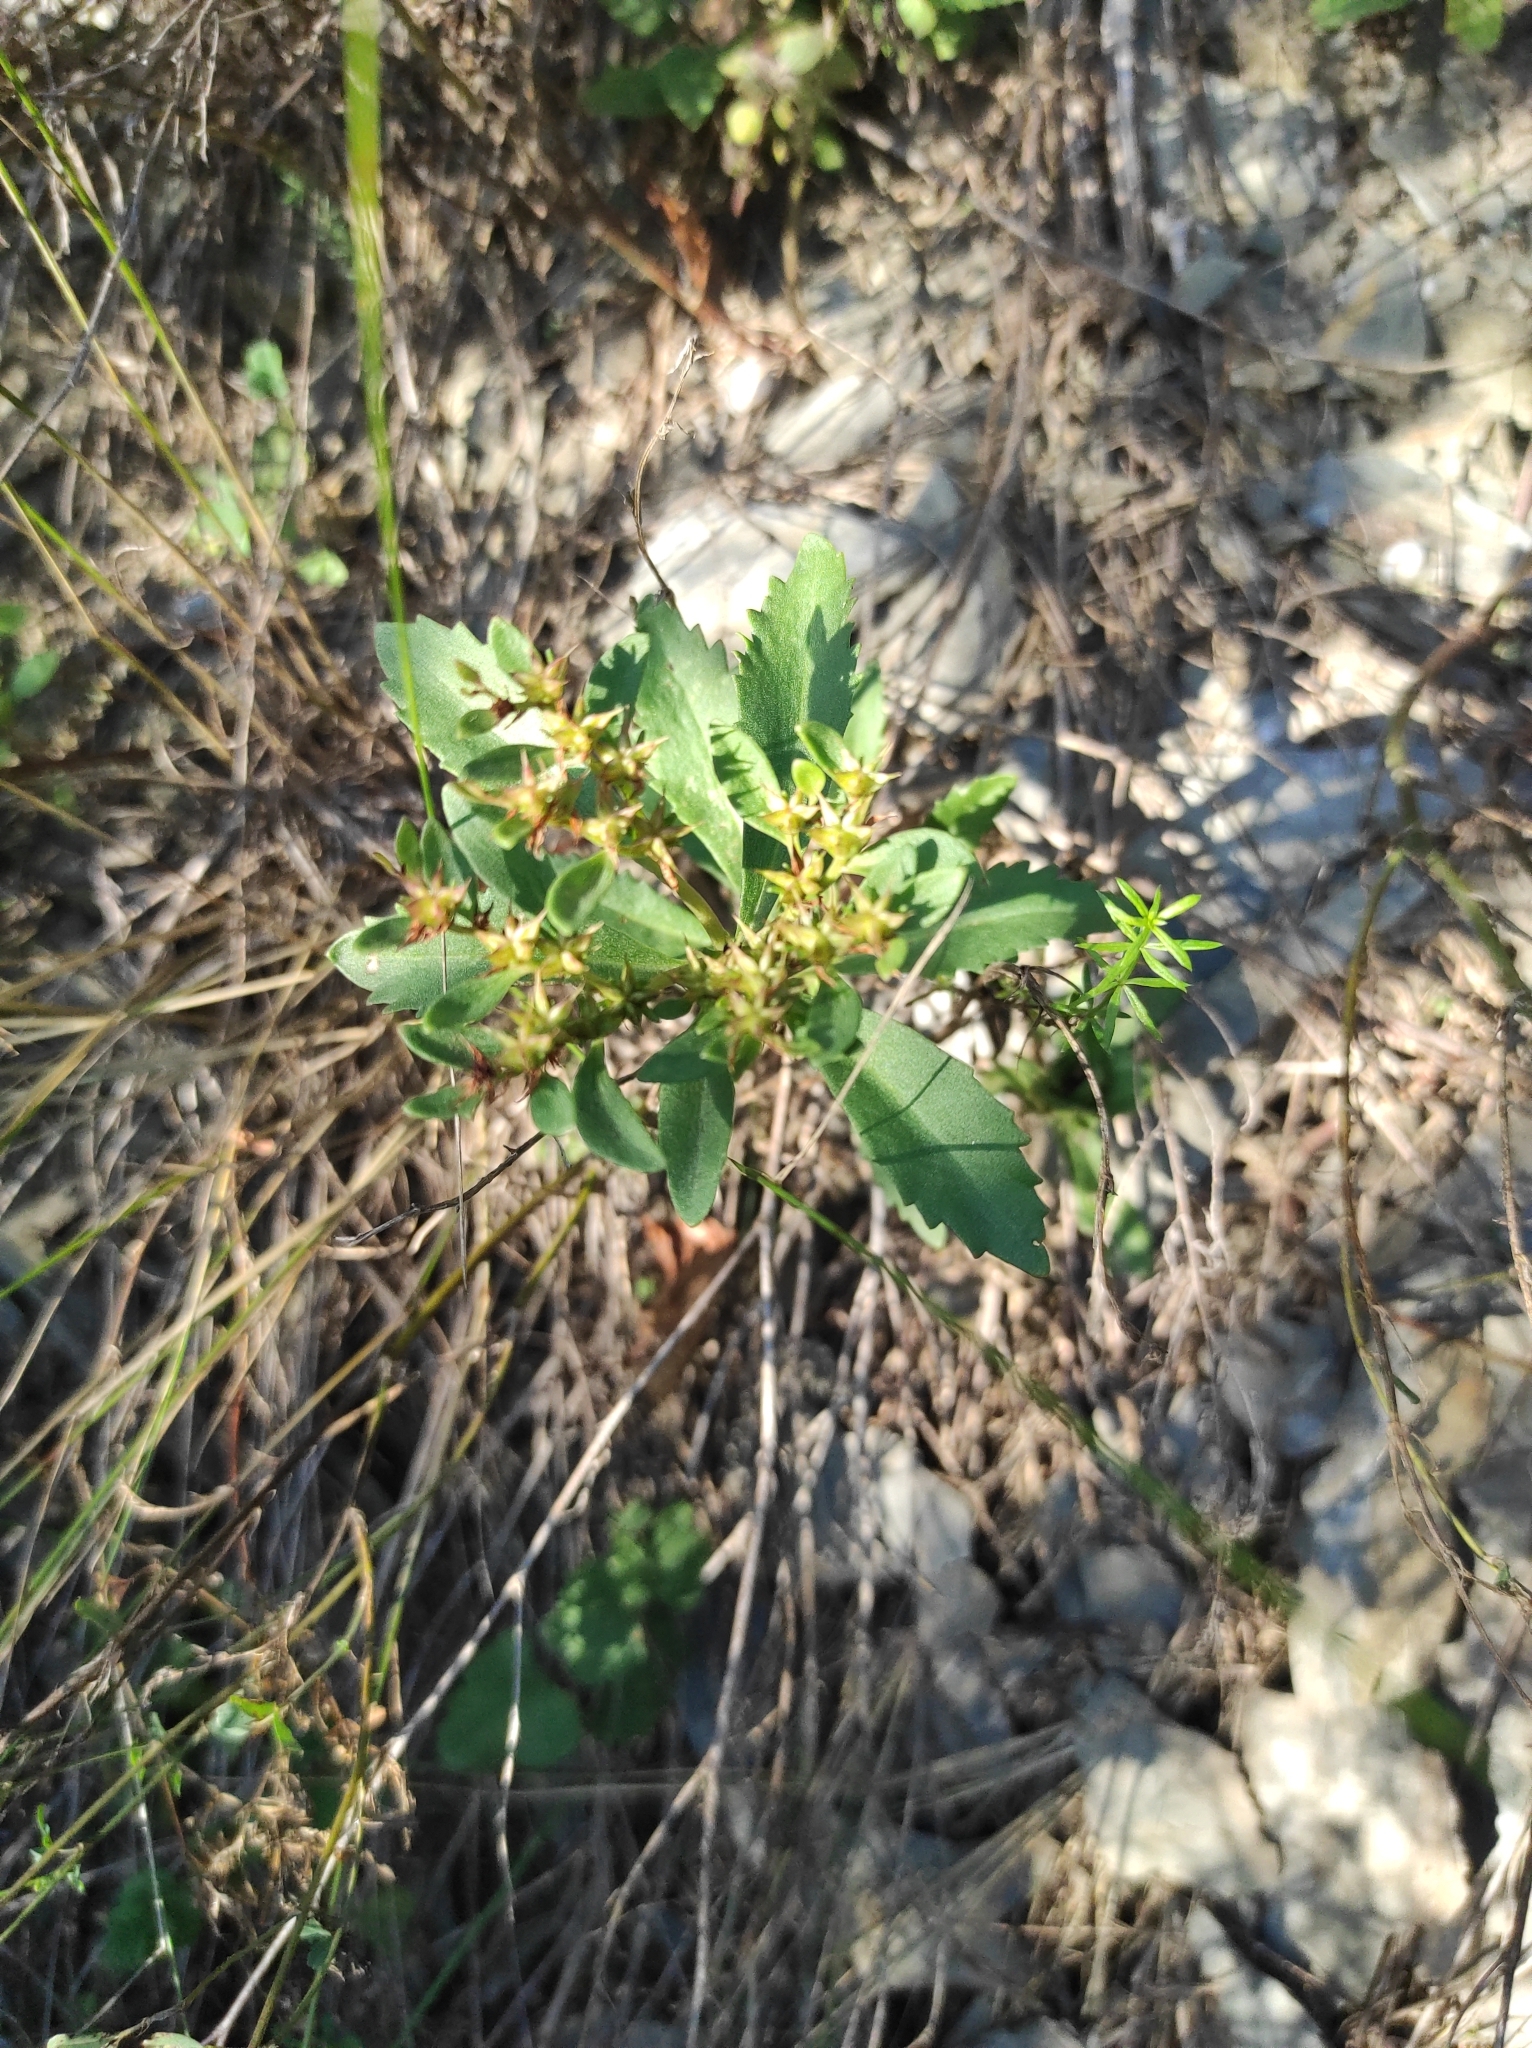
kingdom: Plantae
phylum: Tracheophyta
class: Magnoliopsida
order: Saxifragales
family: Crassulaceae
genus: Phedimus
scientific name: Phedimus aizoon
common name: Orpin aizoon
